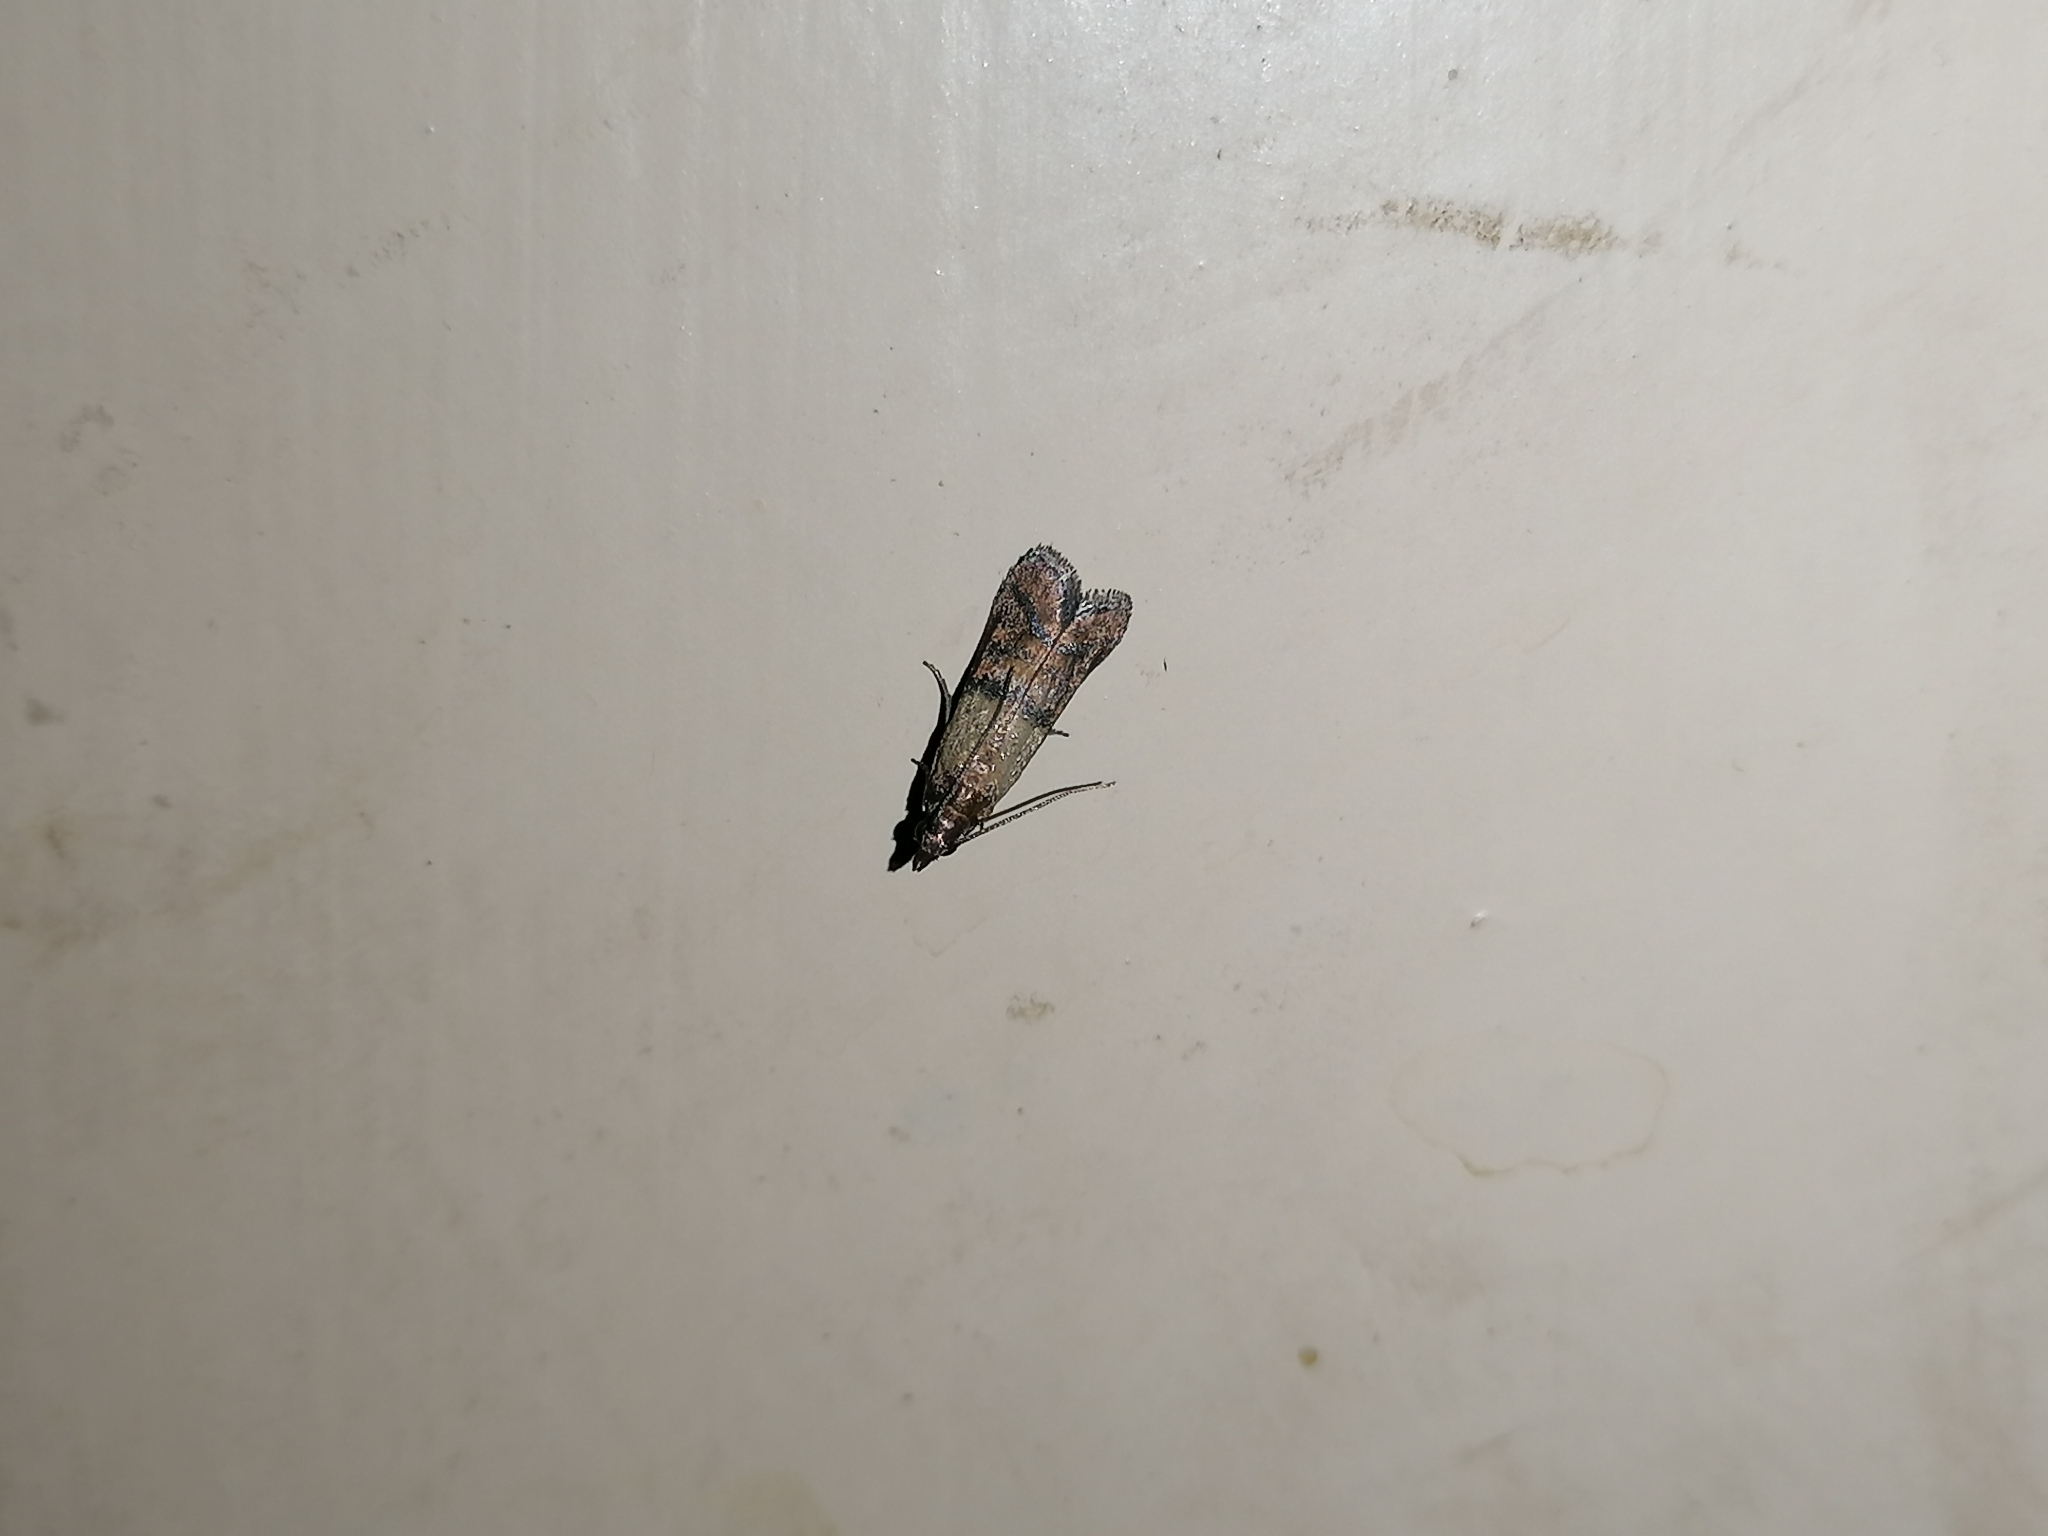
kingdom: Animalia
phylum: Arthropoda
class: Insecta
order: Lepidoptera
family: Pyralidae
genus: Plodia
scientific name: Plodia interpunctella
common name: Indian meal moth
